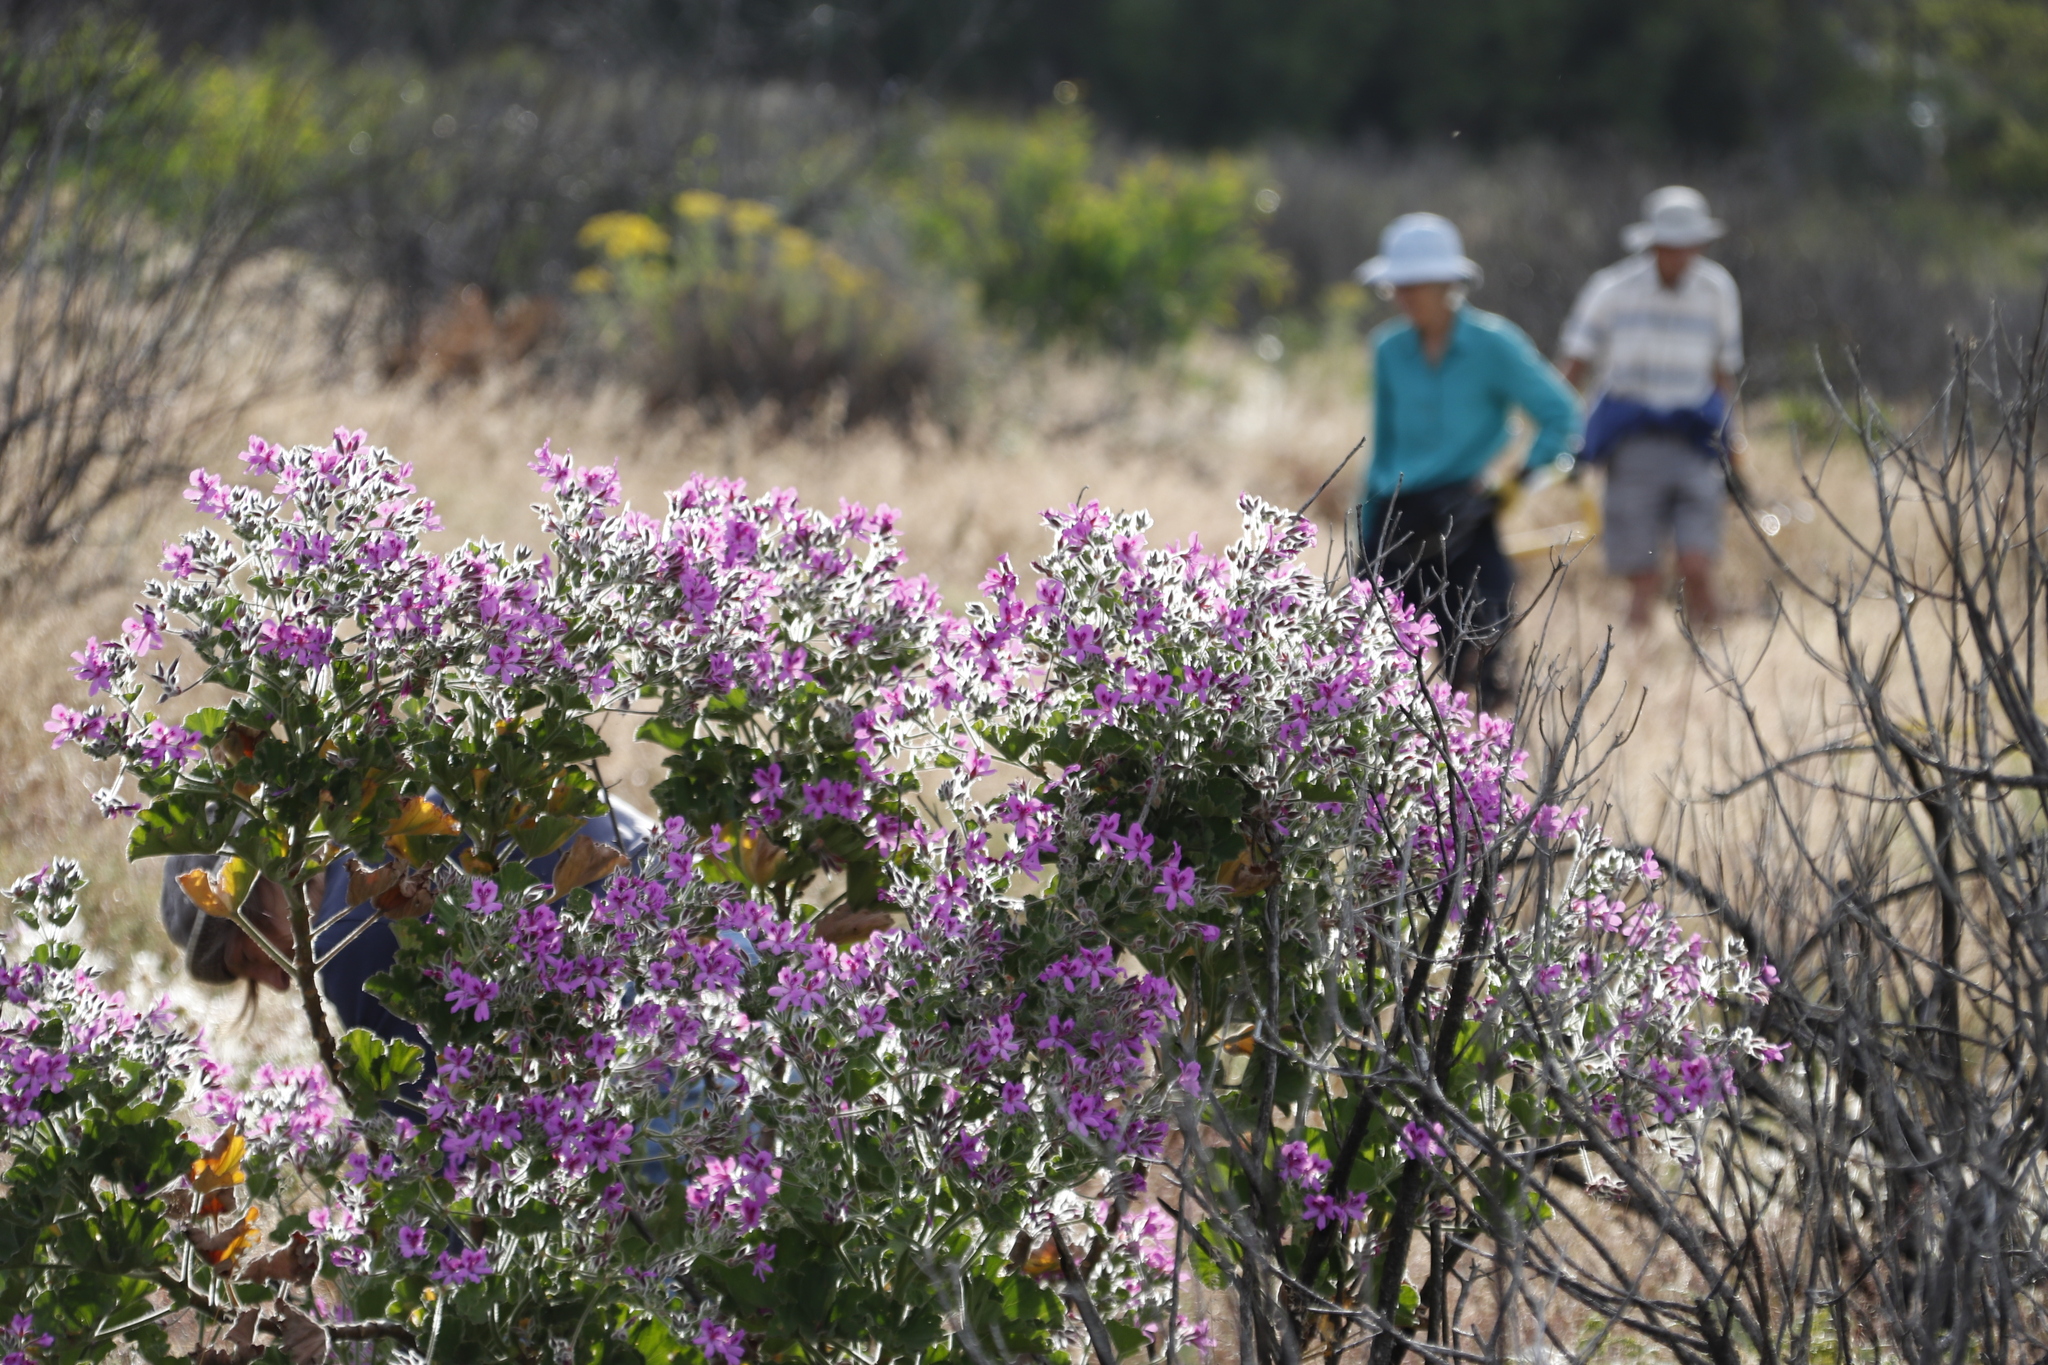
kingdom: Plantae
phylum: Tracheophyta
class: Magnoliopsida
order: Geraniales
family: Geraniaceae
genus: Pelargonium
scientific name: Pelargonium cucullatum
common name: Tree pelargonium
